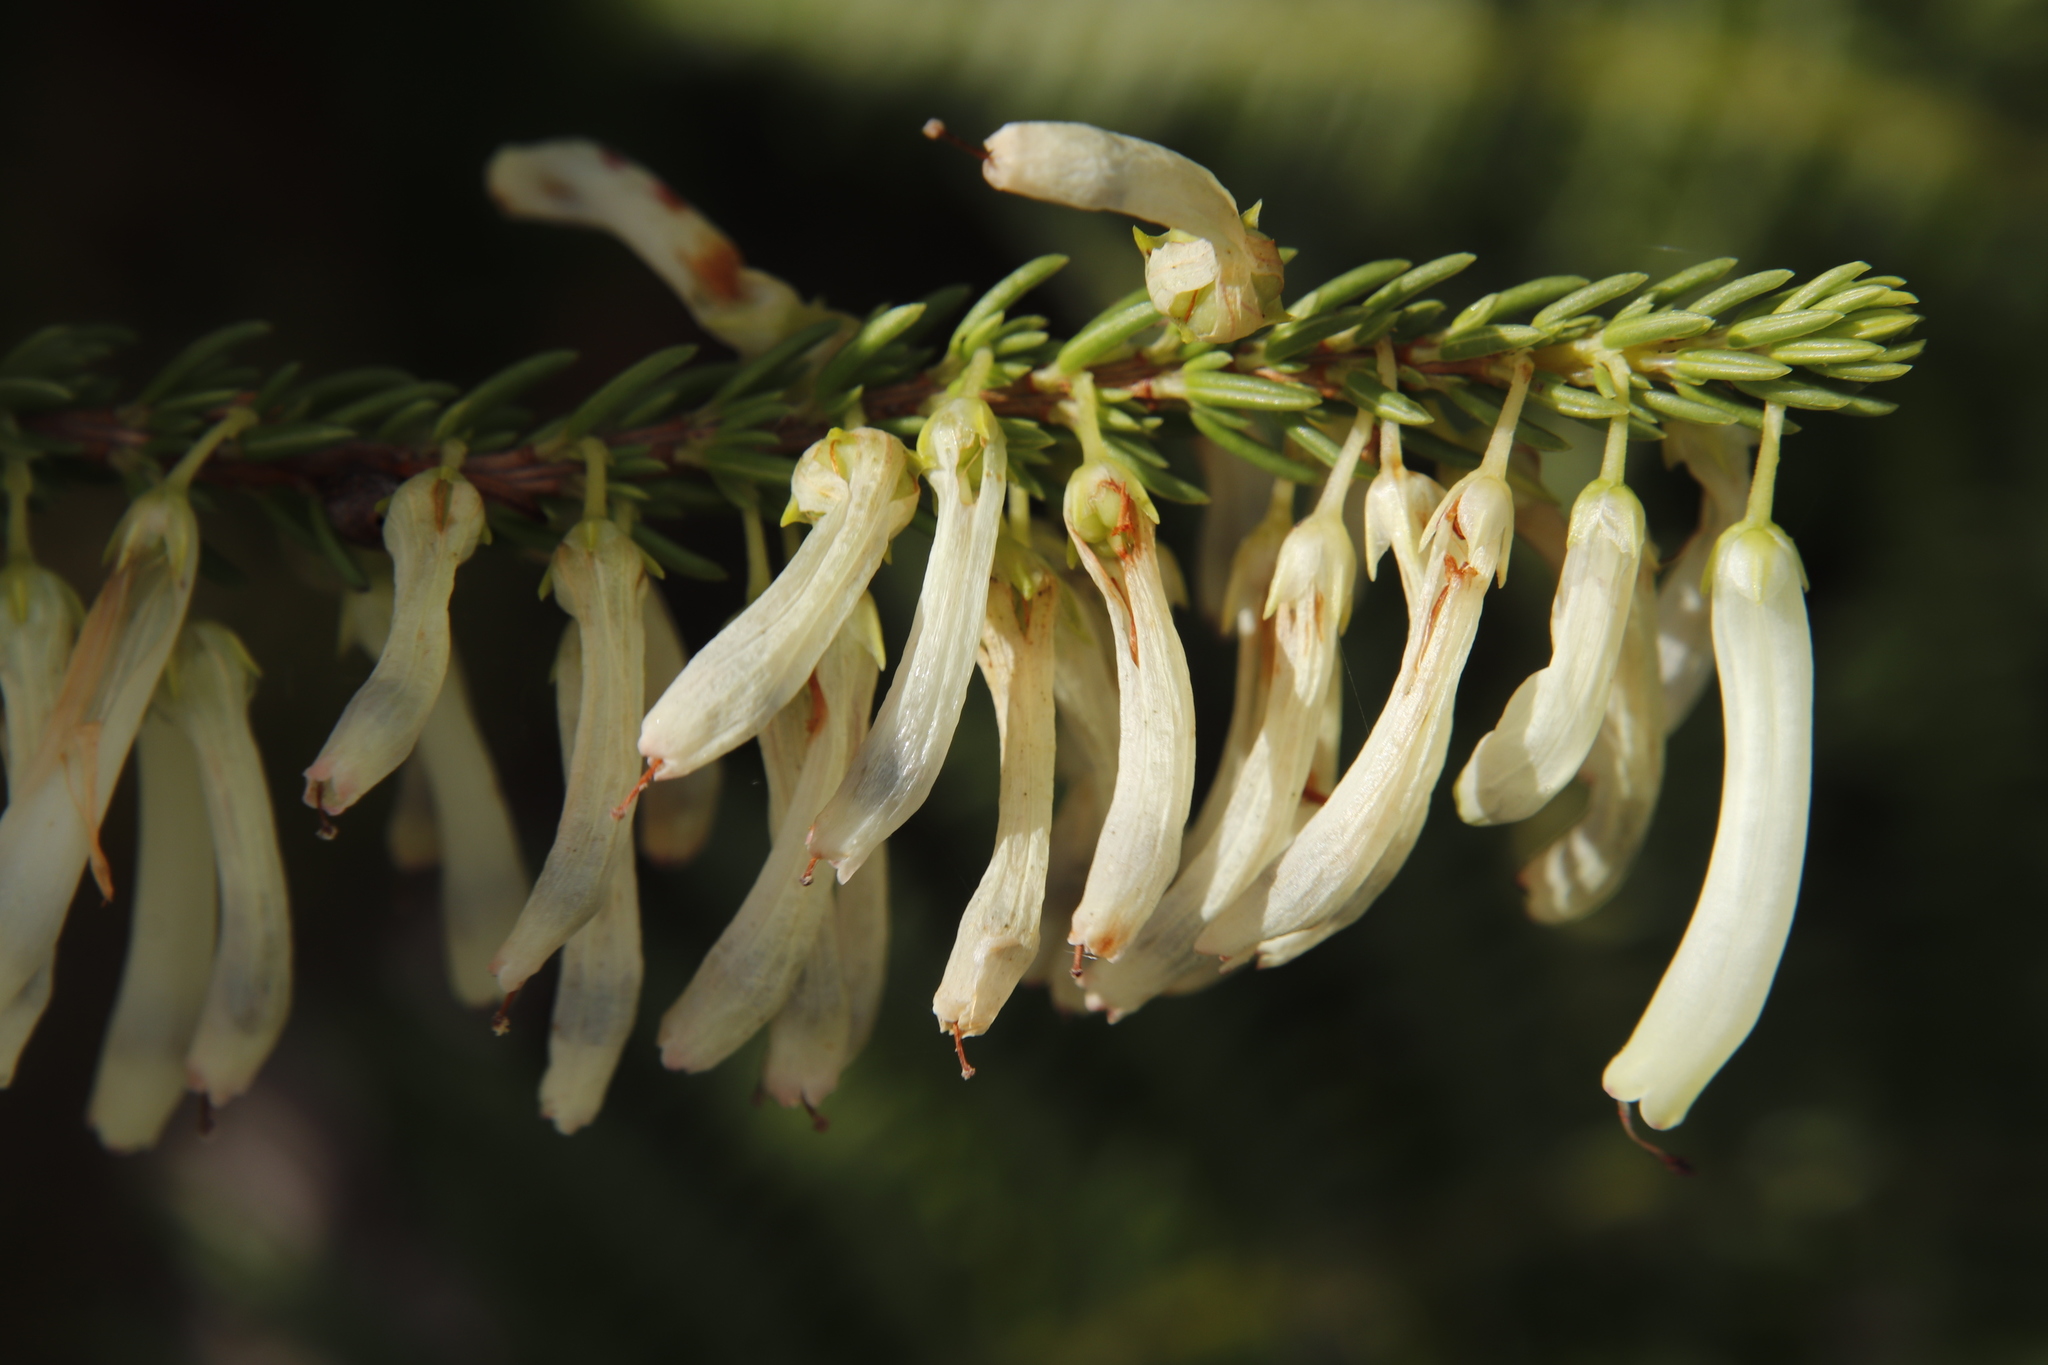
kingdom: Plantae
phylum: Tracheophyta
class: Magnoliopsida
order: Ericales
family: Ericaceae
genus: Erica
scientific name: Erica mammosa
